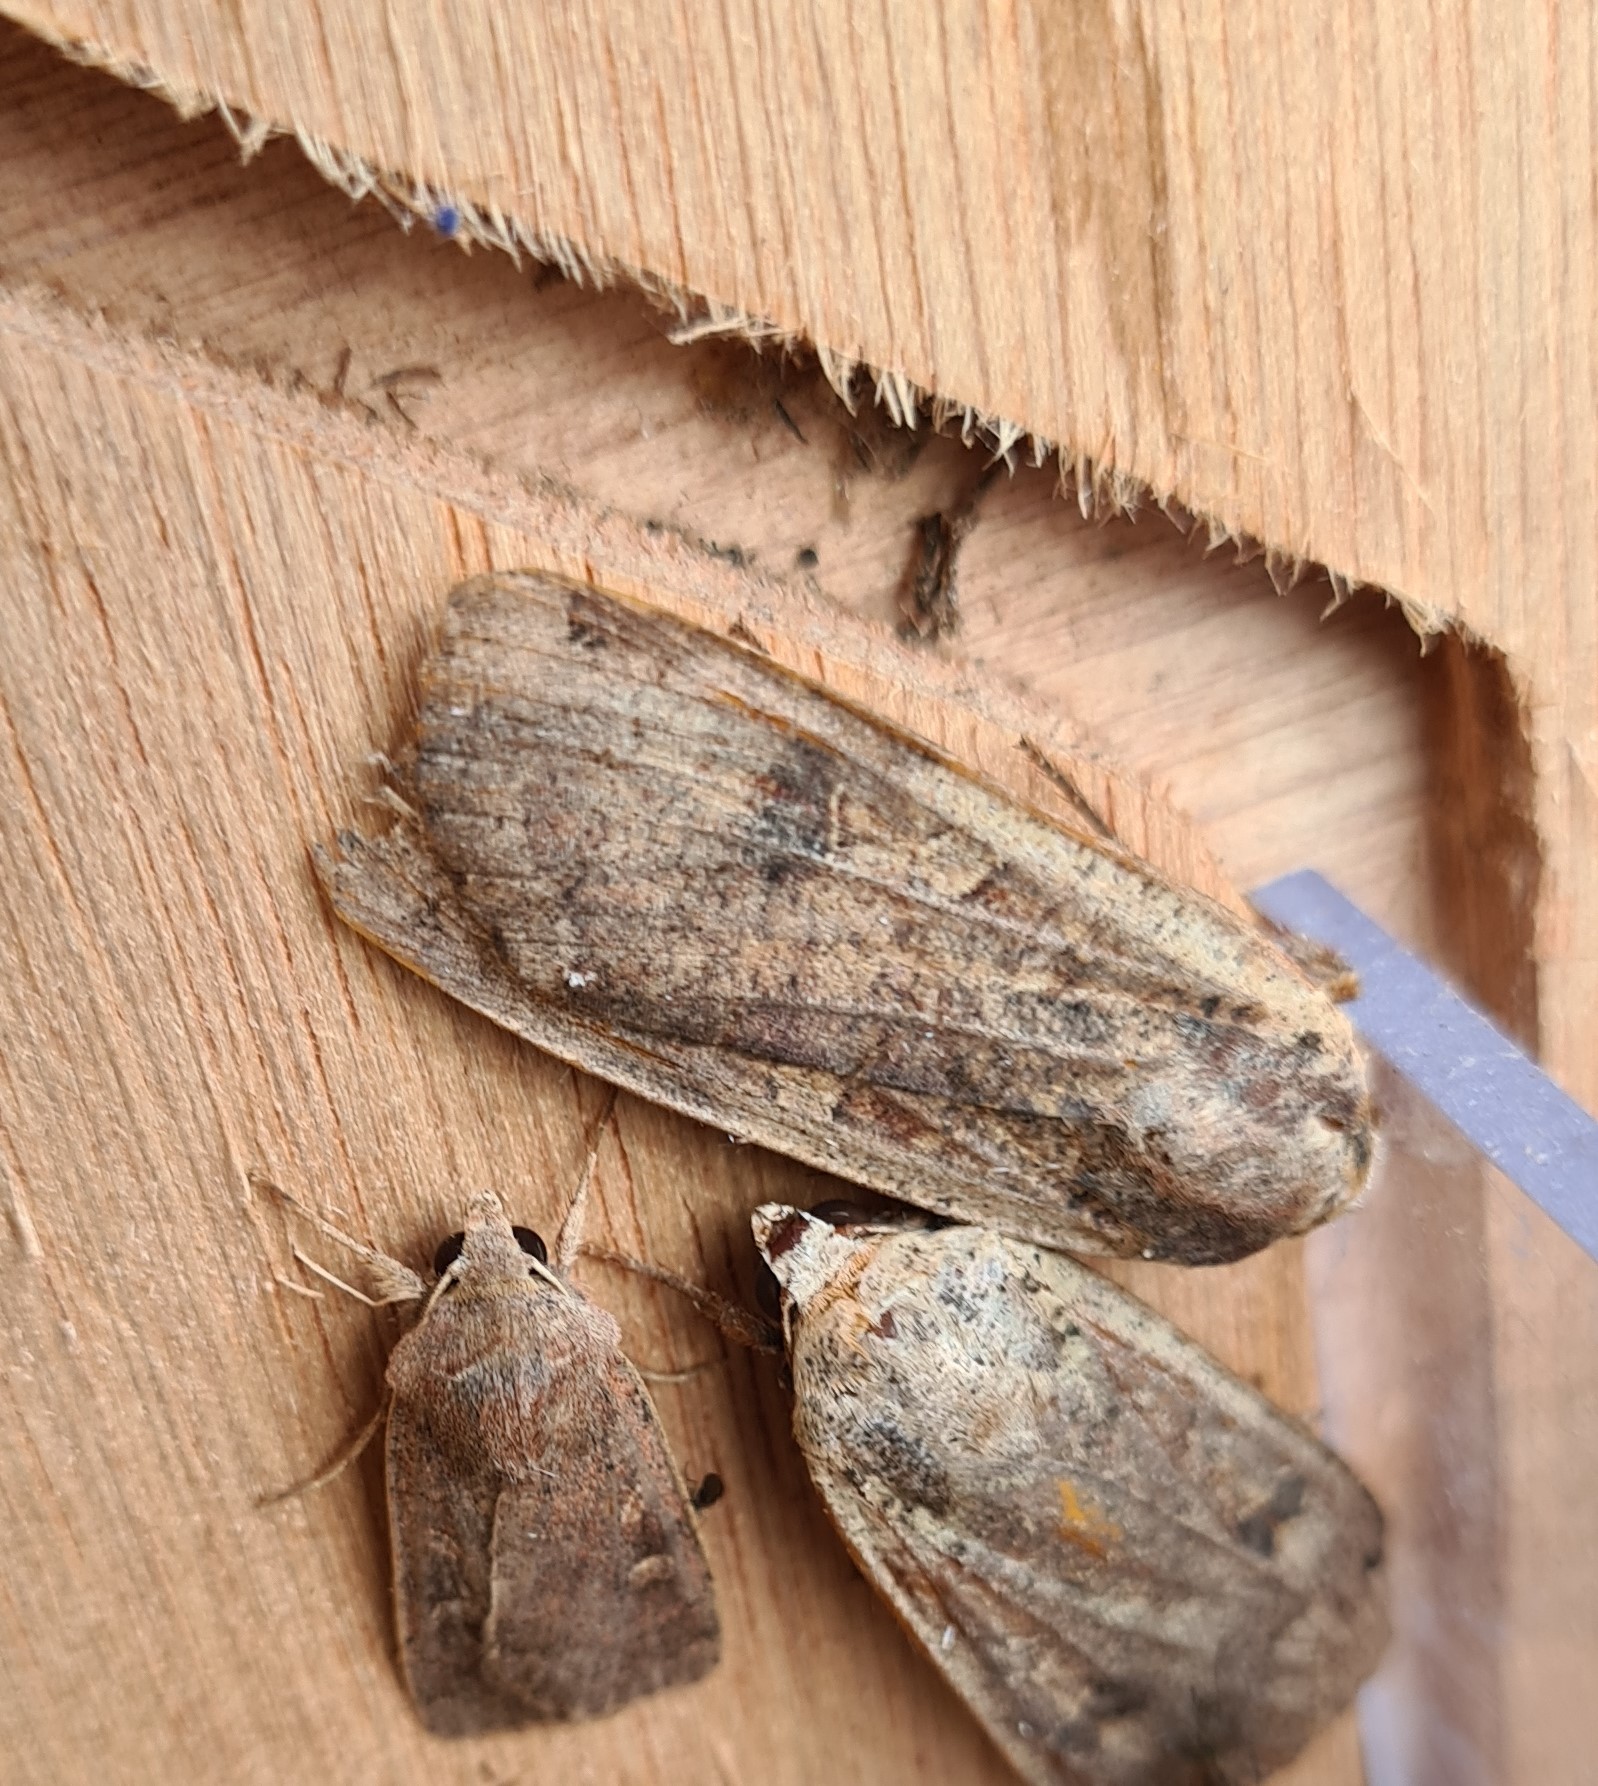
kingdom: Animalia
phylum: Arthropoda
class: Insecta
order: Lepidoptera
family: Noctuidae
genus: Noctua
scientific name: Noctua pronuba
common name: Large yellow underwing
